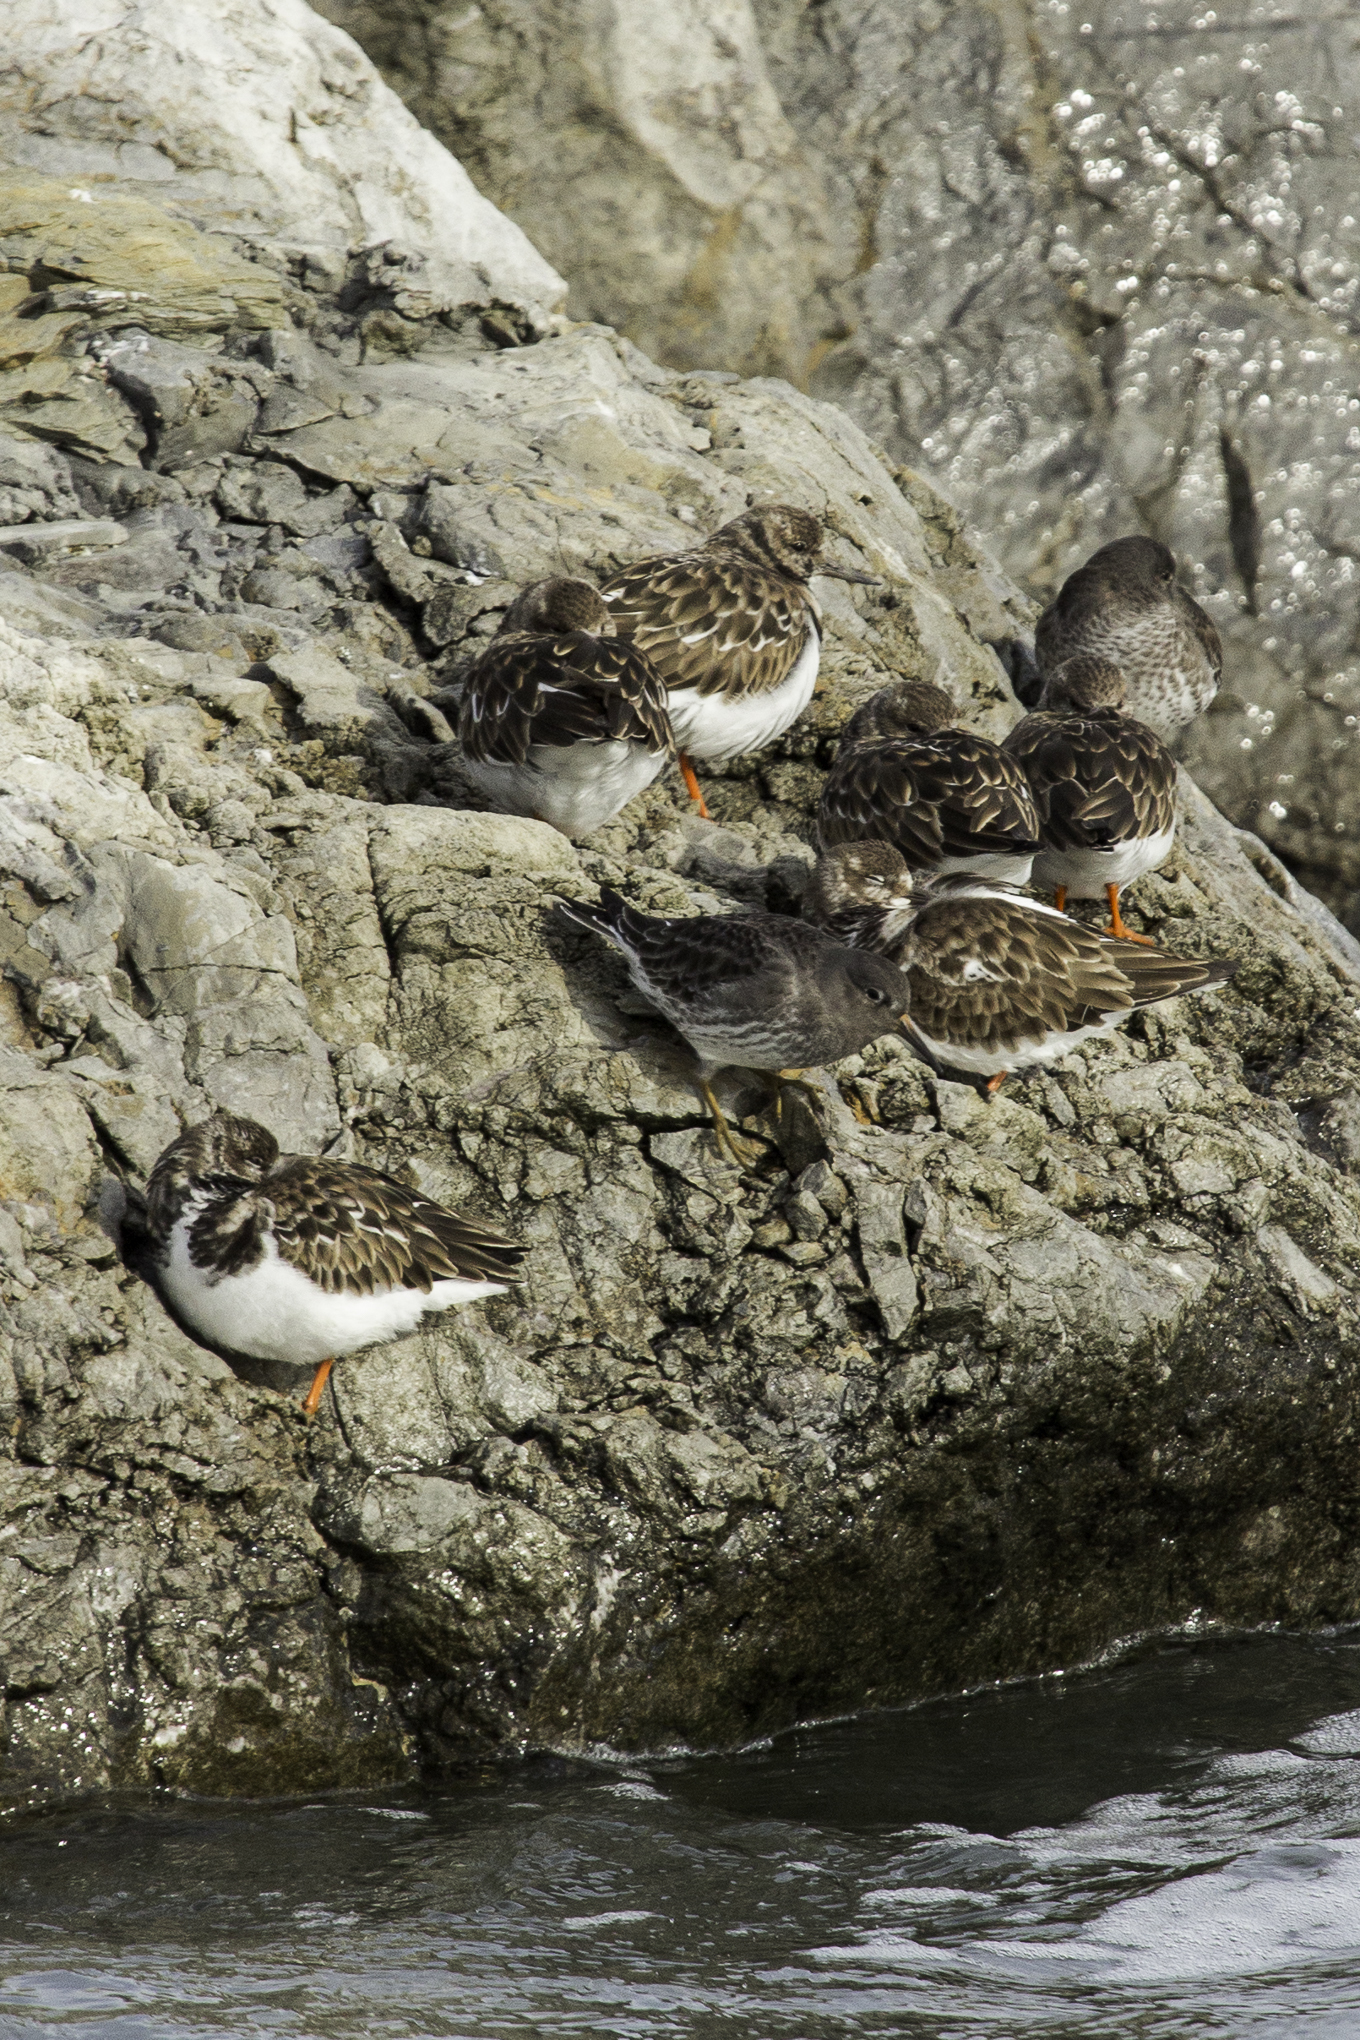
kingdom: Animalia
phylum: Chordata
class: Aves
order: Charadriiformes
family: Scolopacidae
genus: Arenaria
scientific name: Arenaria interpres
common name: Ruddy turnstone
